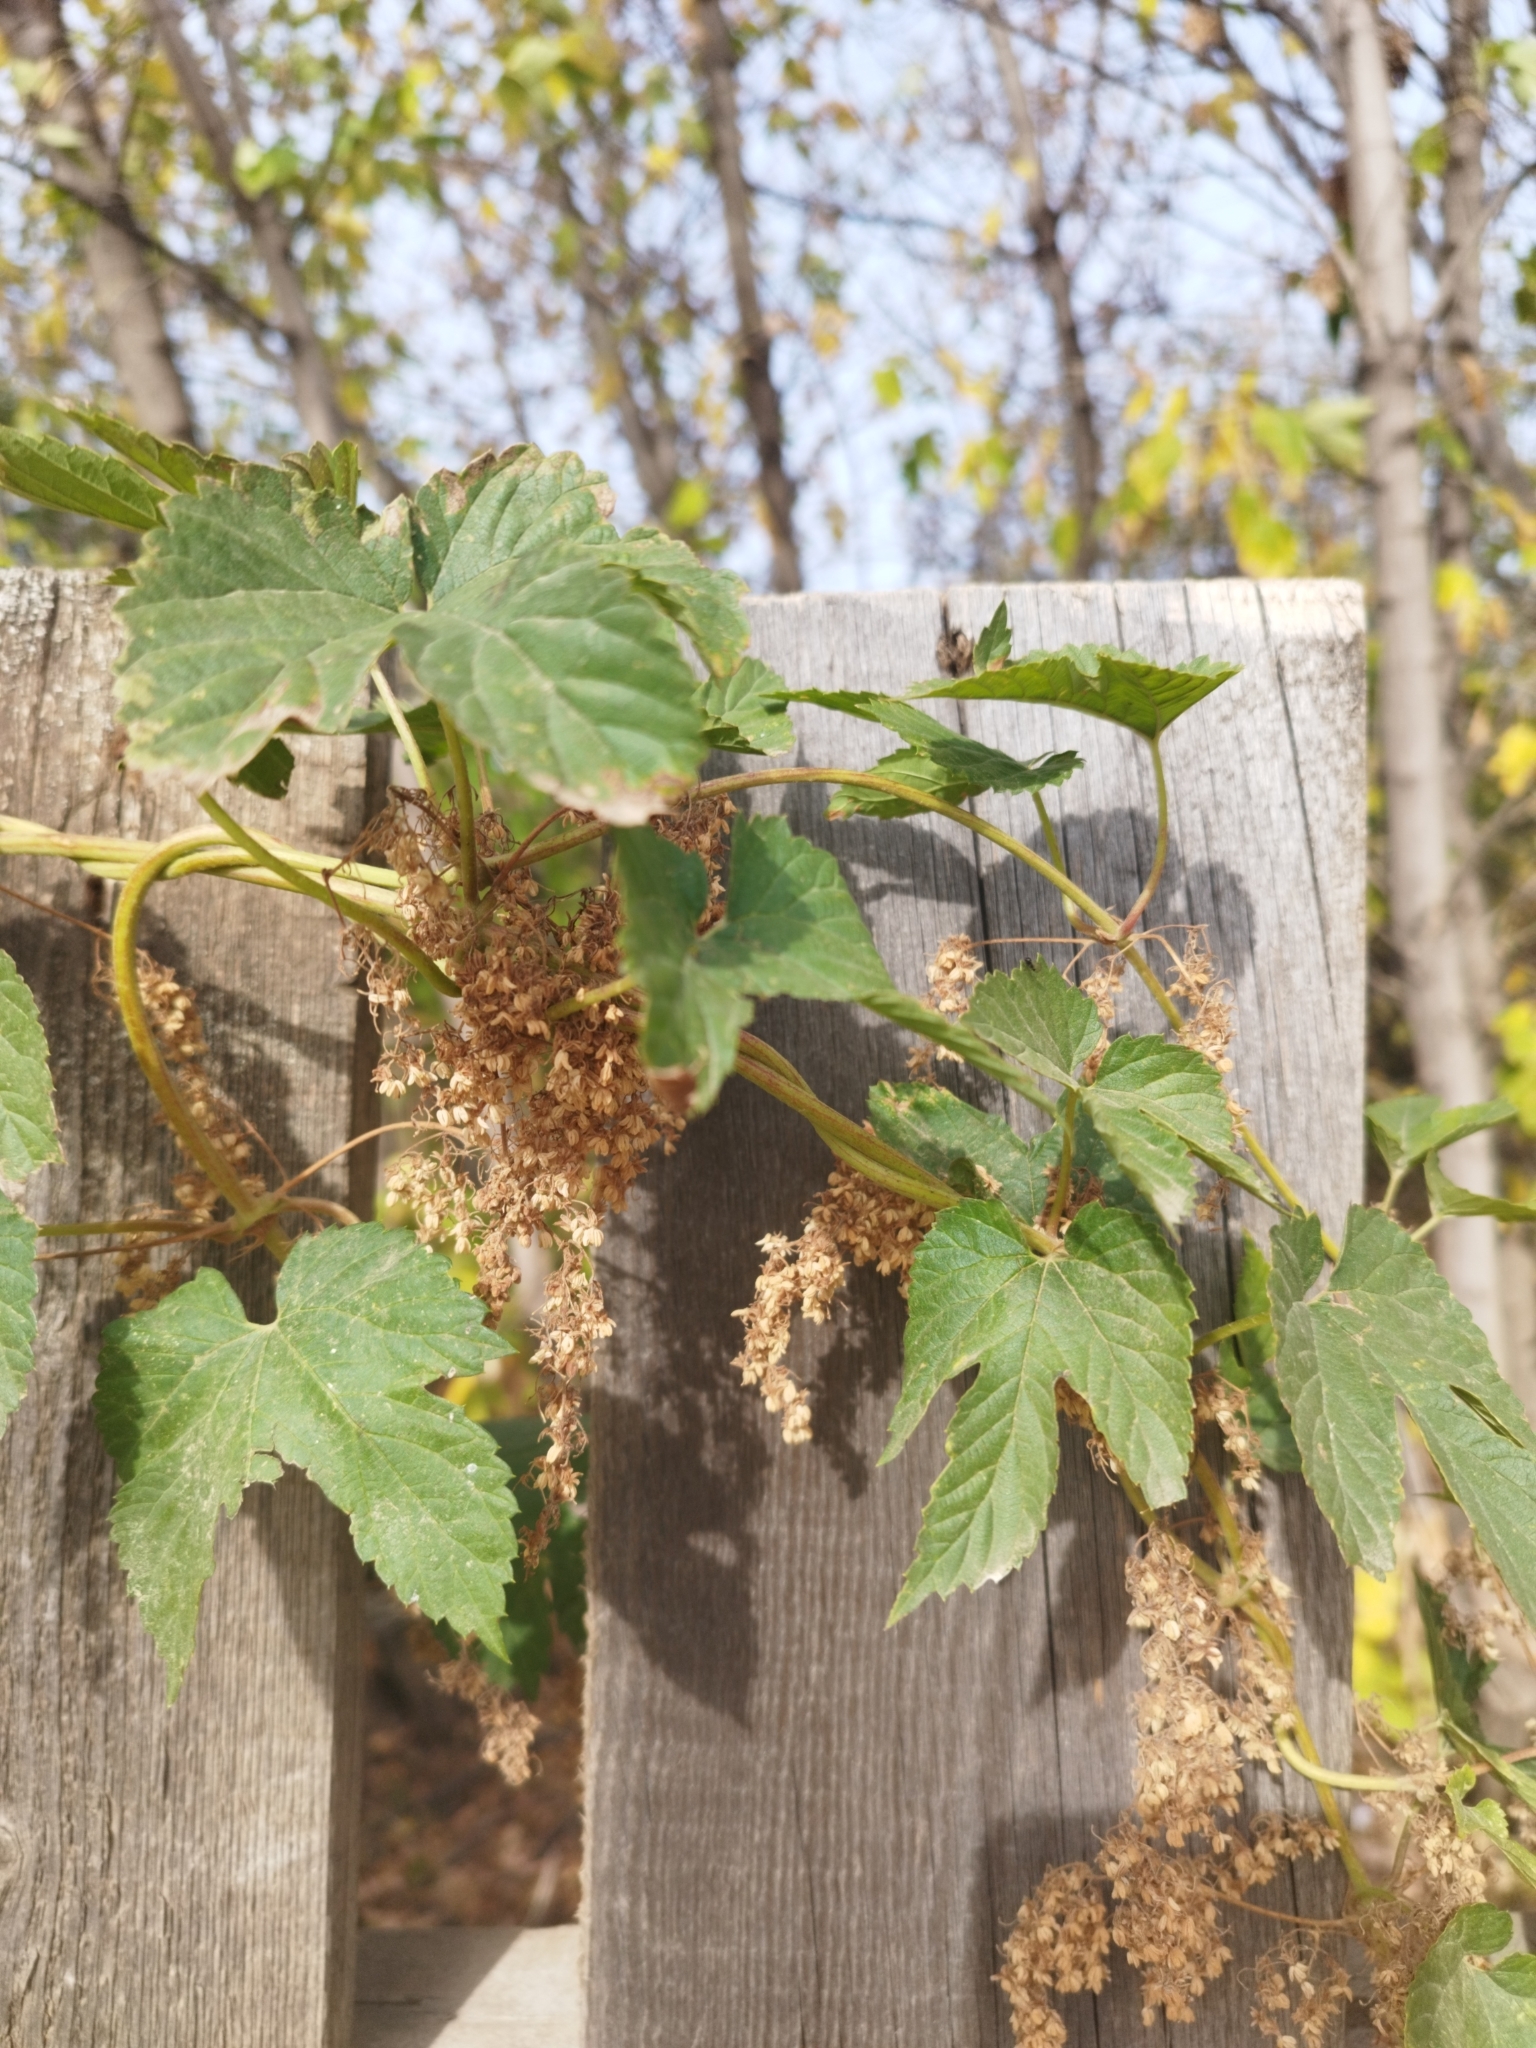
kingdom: Plantae
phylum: Tracheophyta
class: Magnoliopsida
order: Rosales
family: Cannabaceae
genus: Humulus
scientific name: Humulus lupulus
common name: Hop
